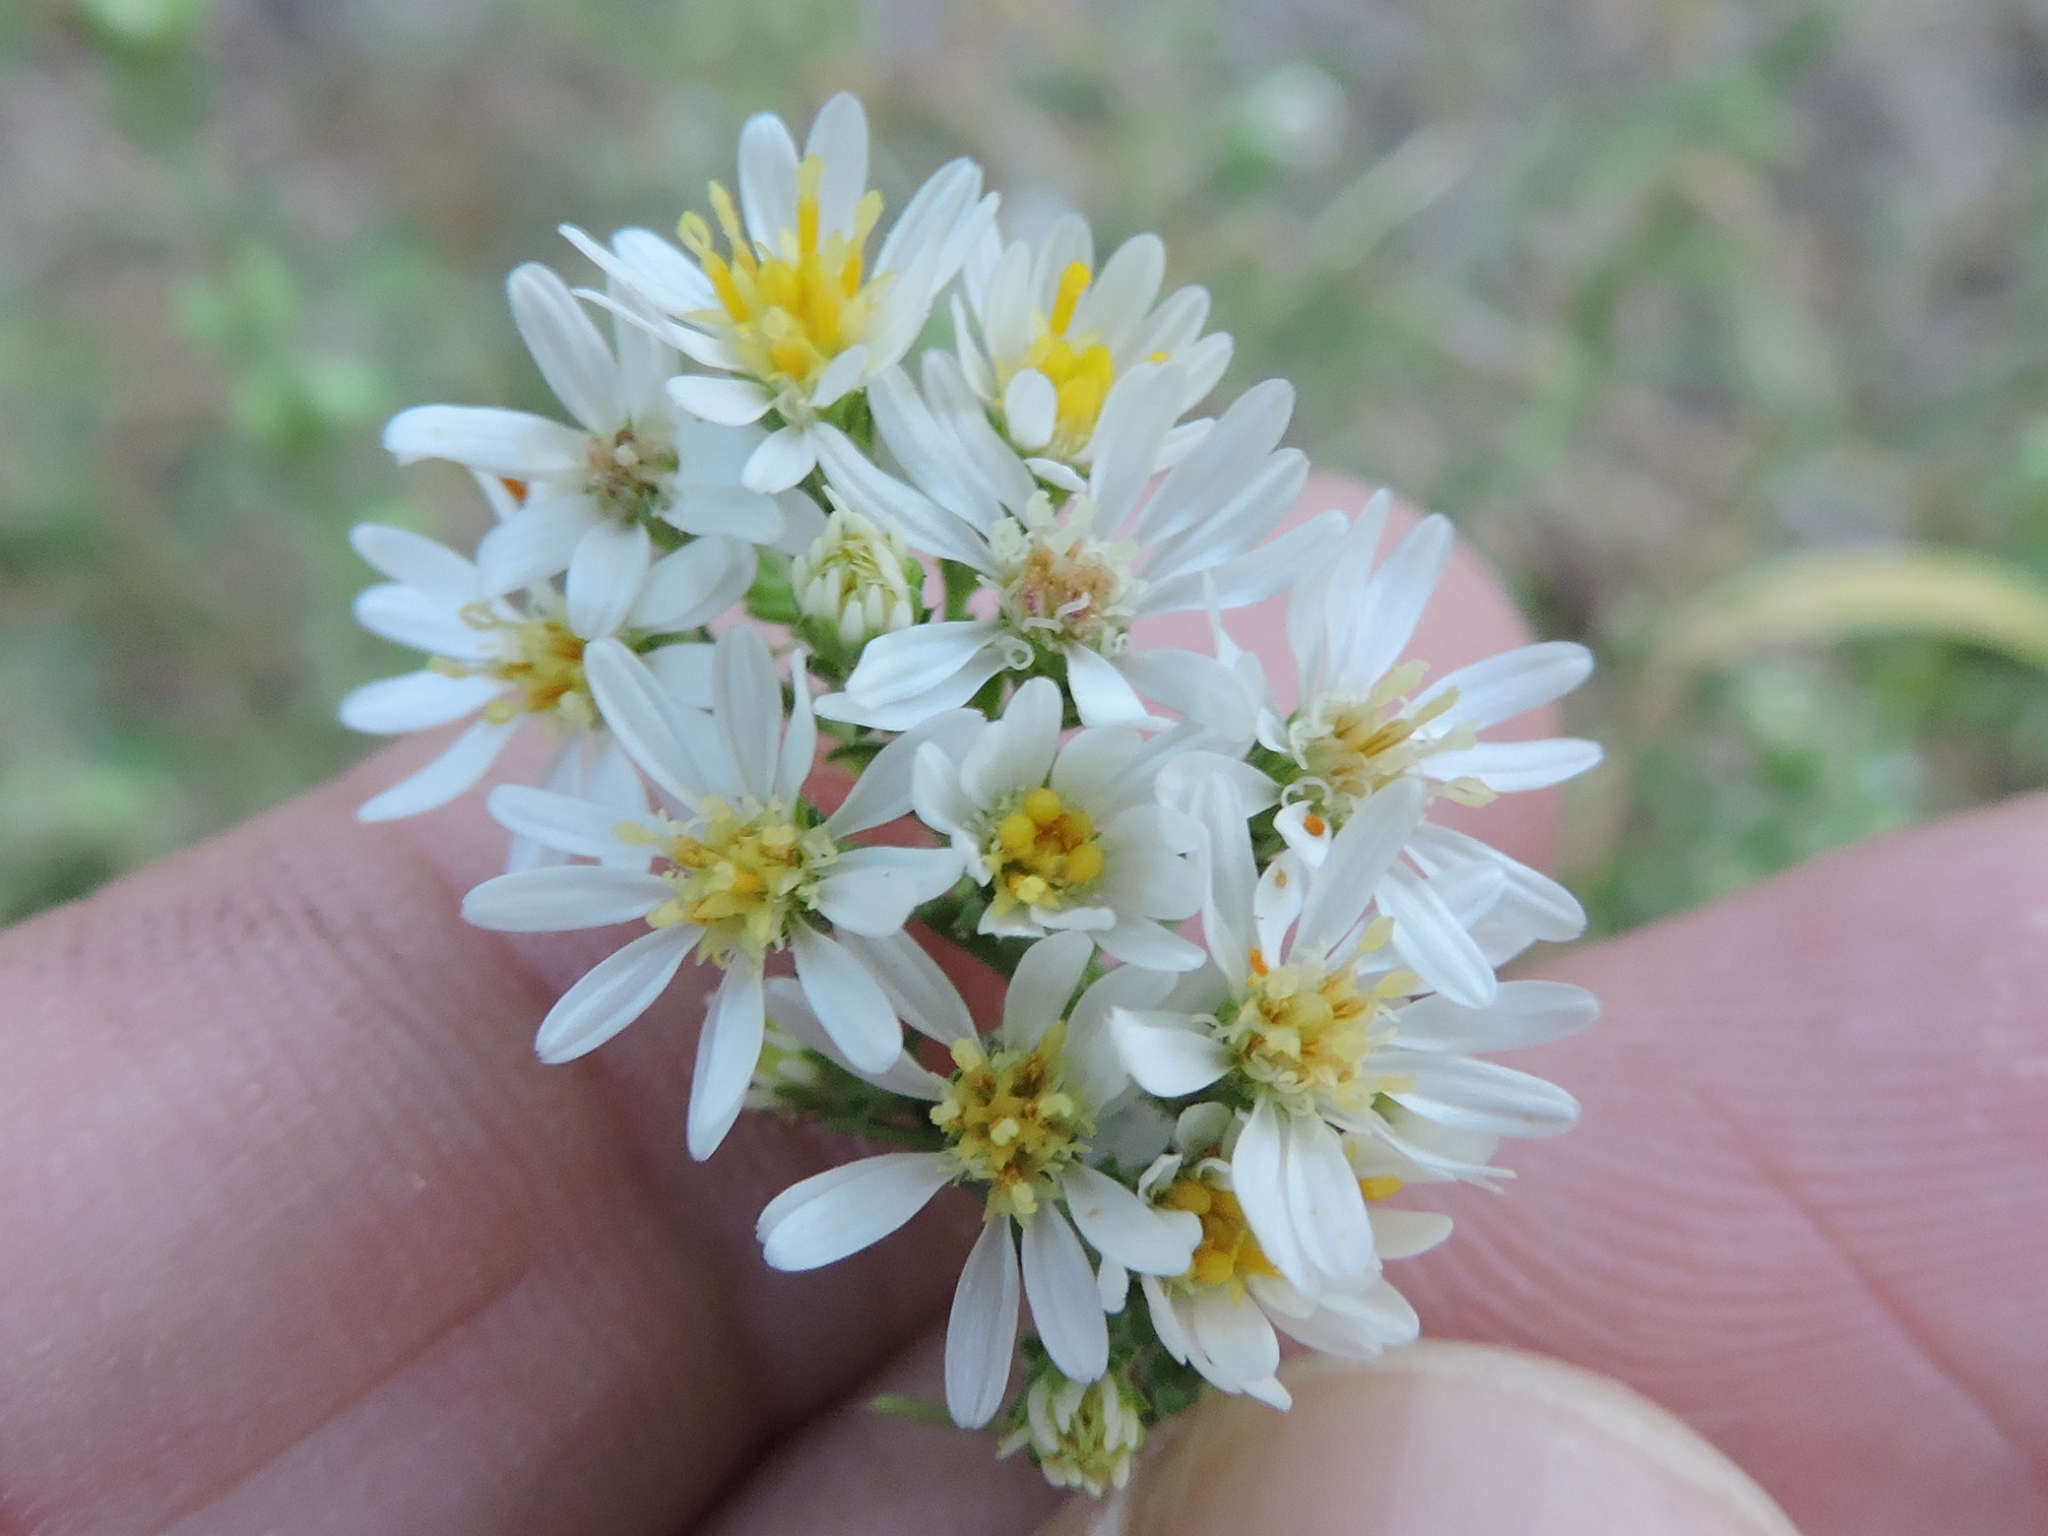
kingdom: Plantae
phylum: Tracheophyta
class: Magnoliopsida
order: Asterales
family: Asteraceae
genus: Symphyotrichum
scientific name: Symphyotrichum ericoides
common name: Heath aster
